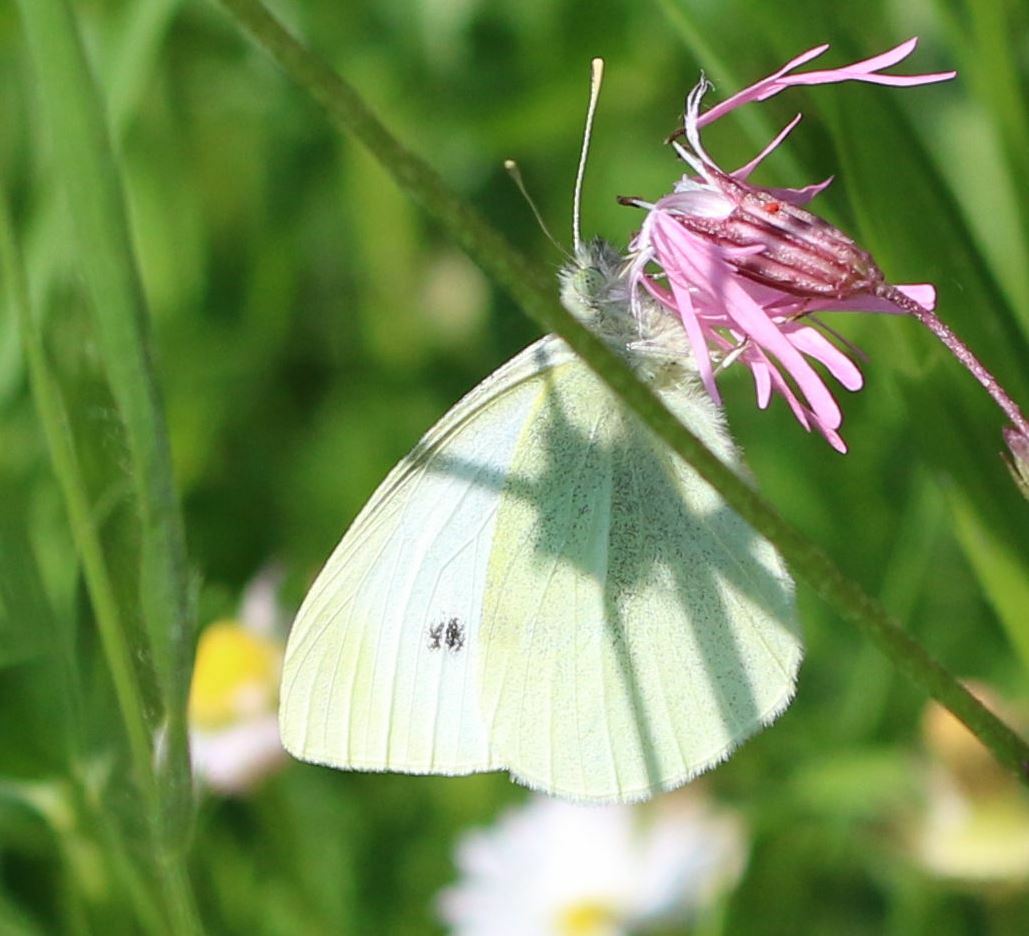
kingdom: Animalia
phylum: Arthropoda
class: Insecta
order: Lepidoptera
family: Pieridae
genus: Pieris
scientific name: Pieris rapae
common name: Small white
